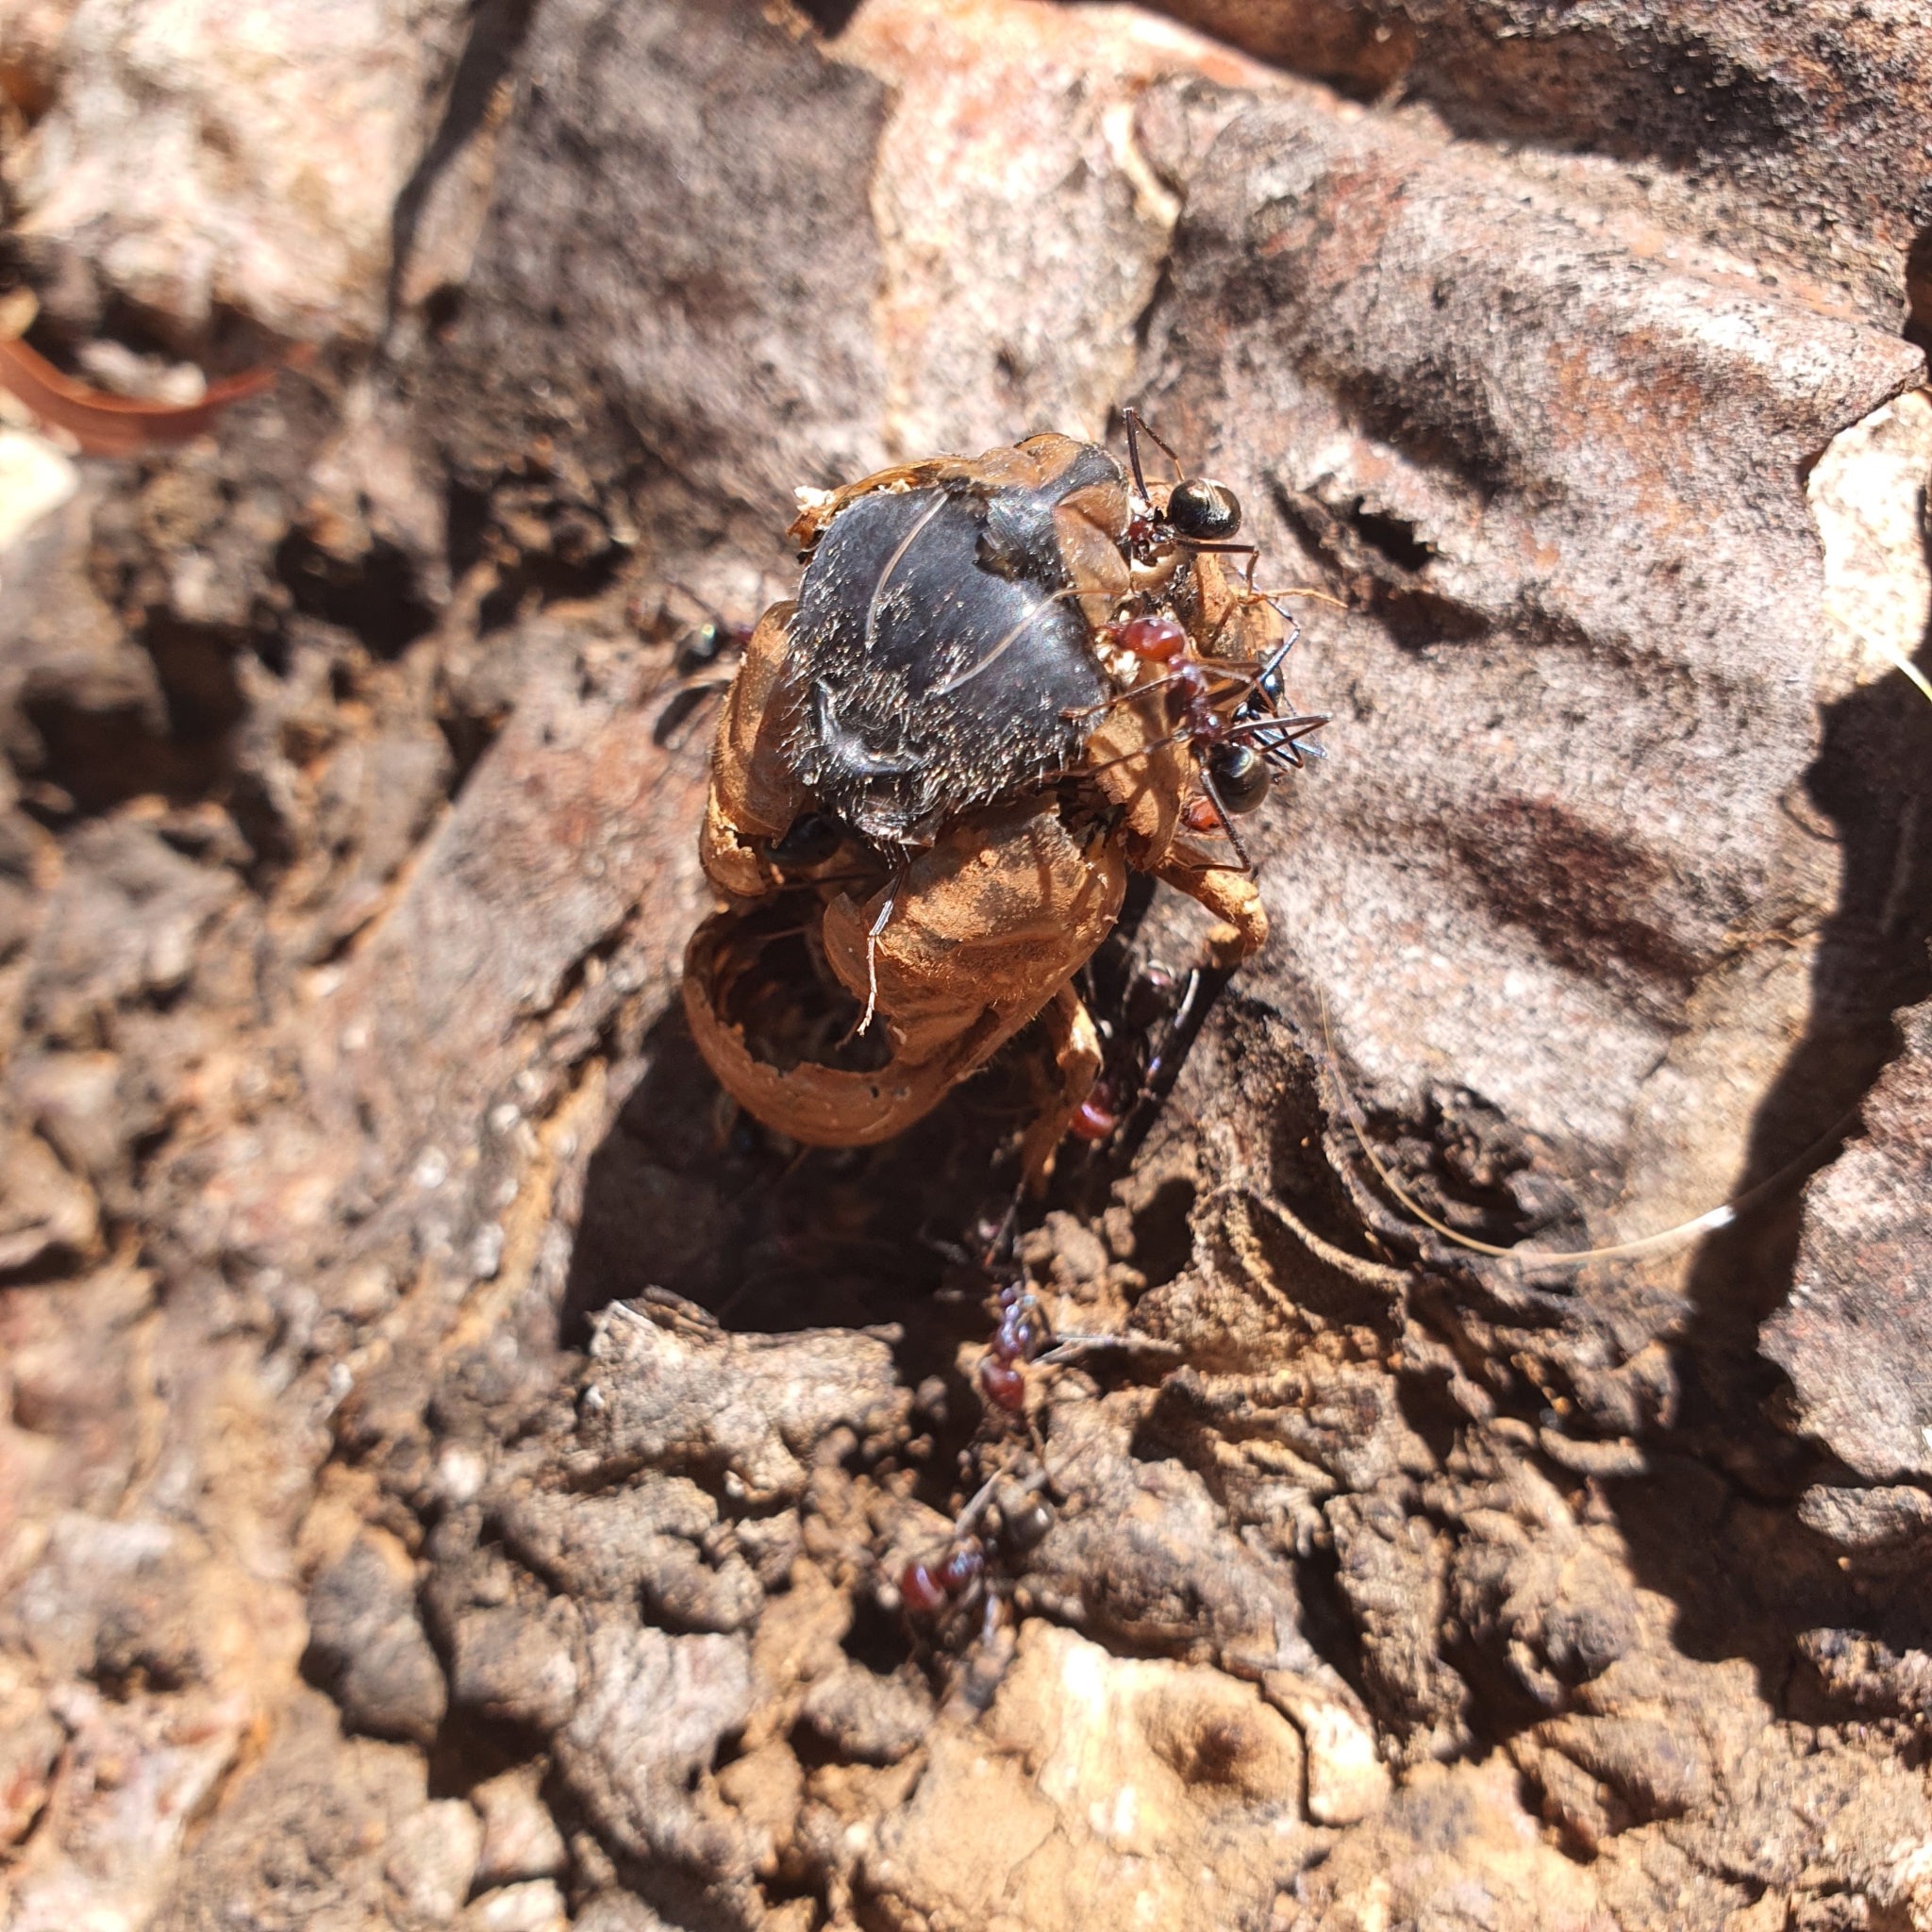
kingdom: Animalia
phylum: Arthropoda
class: Insecta
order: Hymenoptera
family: Formicidae
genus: Iridomyrmex
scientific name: Iridomyrmex purpureus
